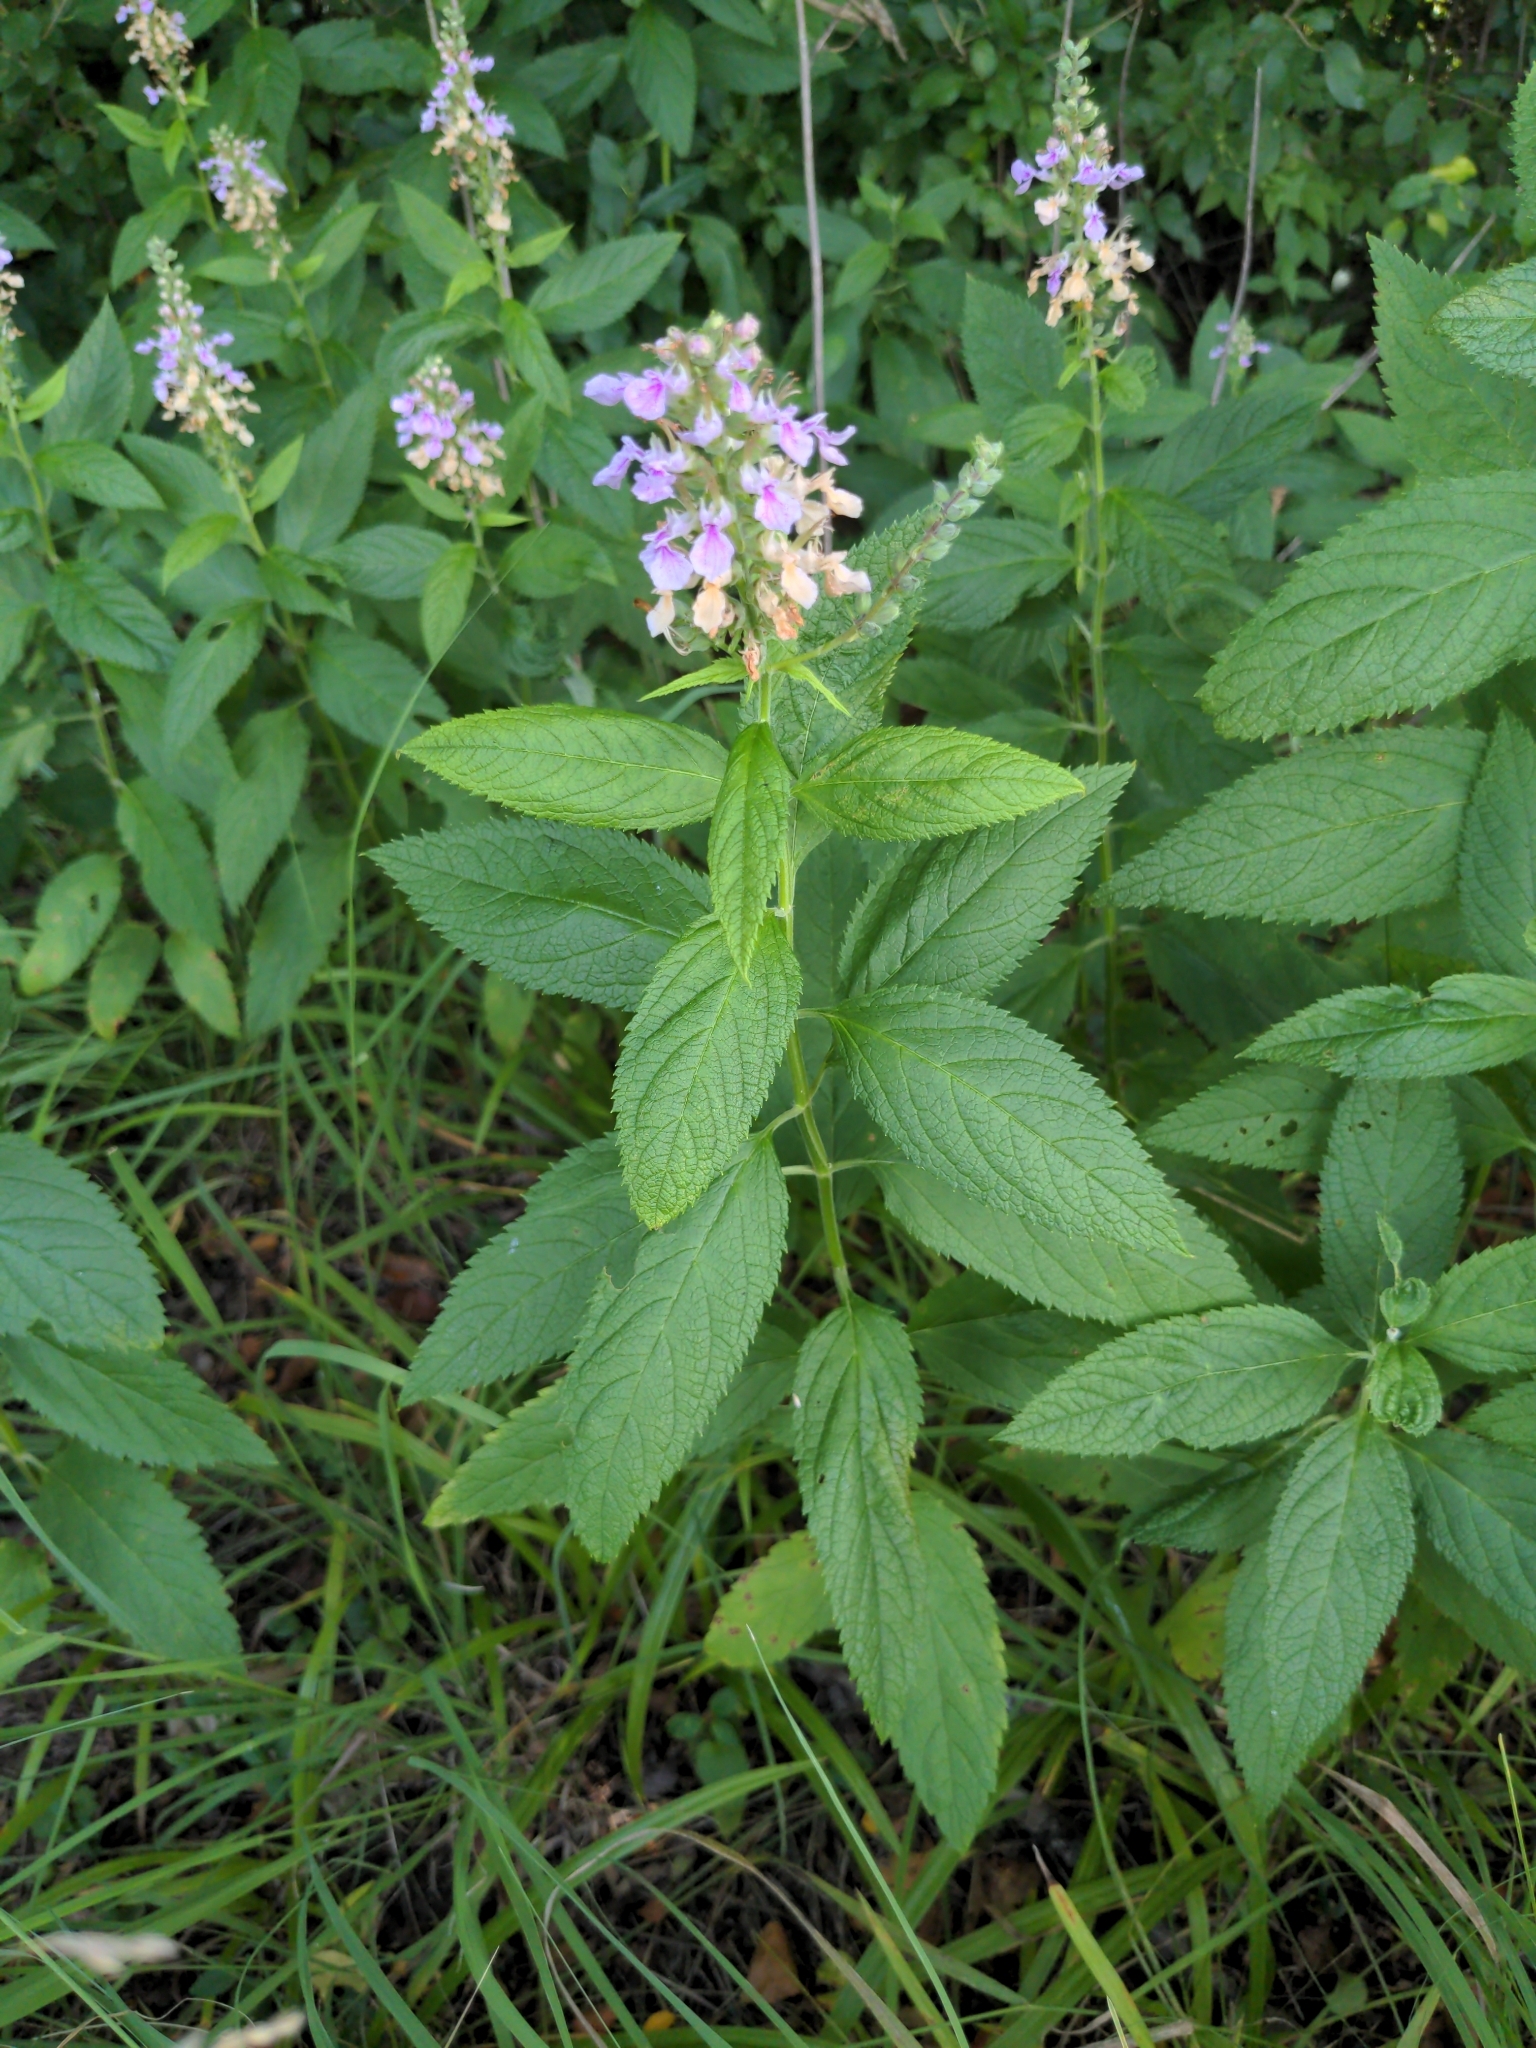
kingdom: Plantae
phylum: Tracheophyta
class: Magnoliopsida
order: Lamiales
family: Lamiaceae
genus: Teucrium
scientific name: Teucrium canadense
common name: American germander
